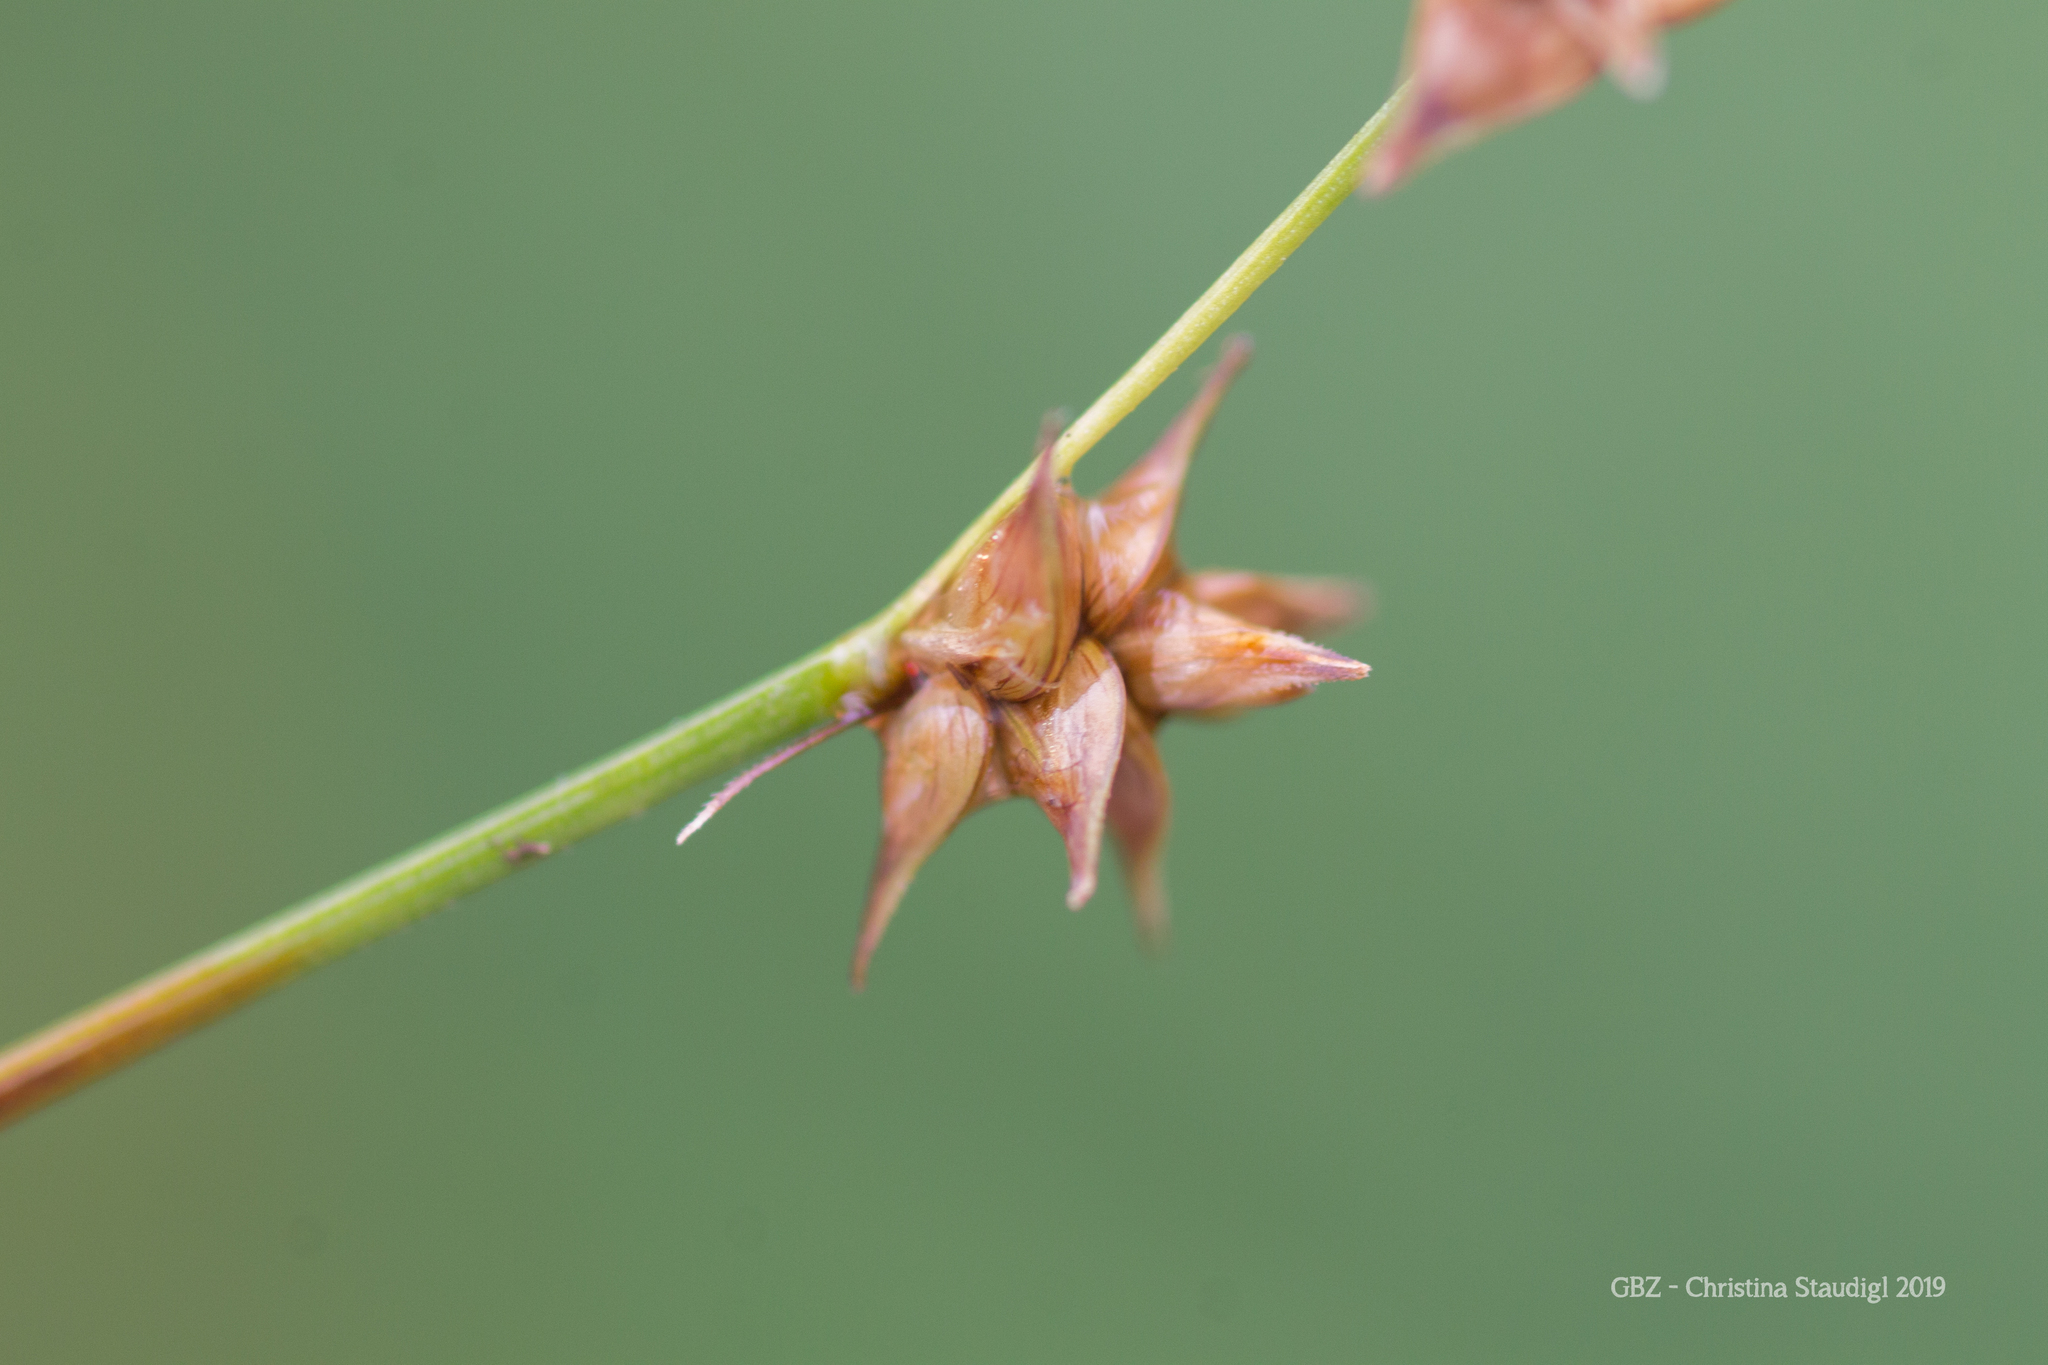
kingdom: Plantae
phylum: Tracheophyta
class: Liliopsida
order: Poales
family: Cyperaceae
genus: Carex
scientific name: Carex echinata
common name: Star sedge
